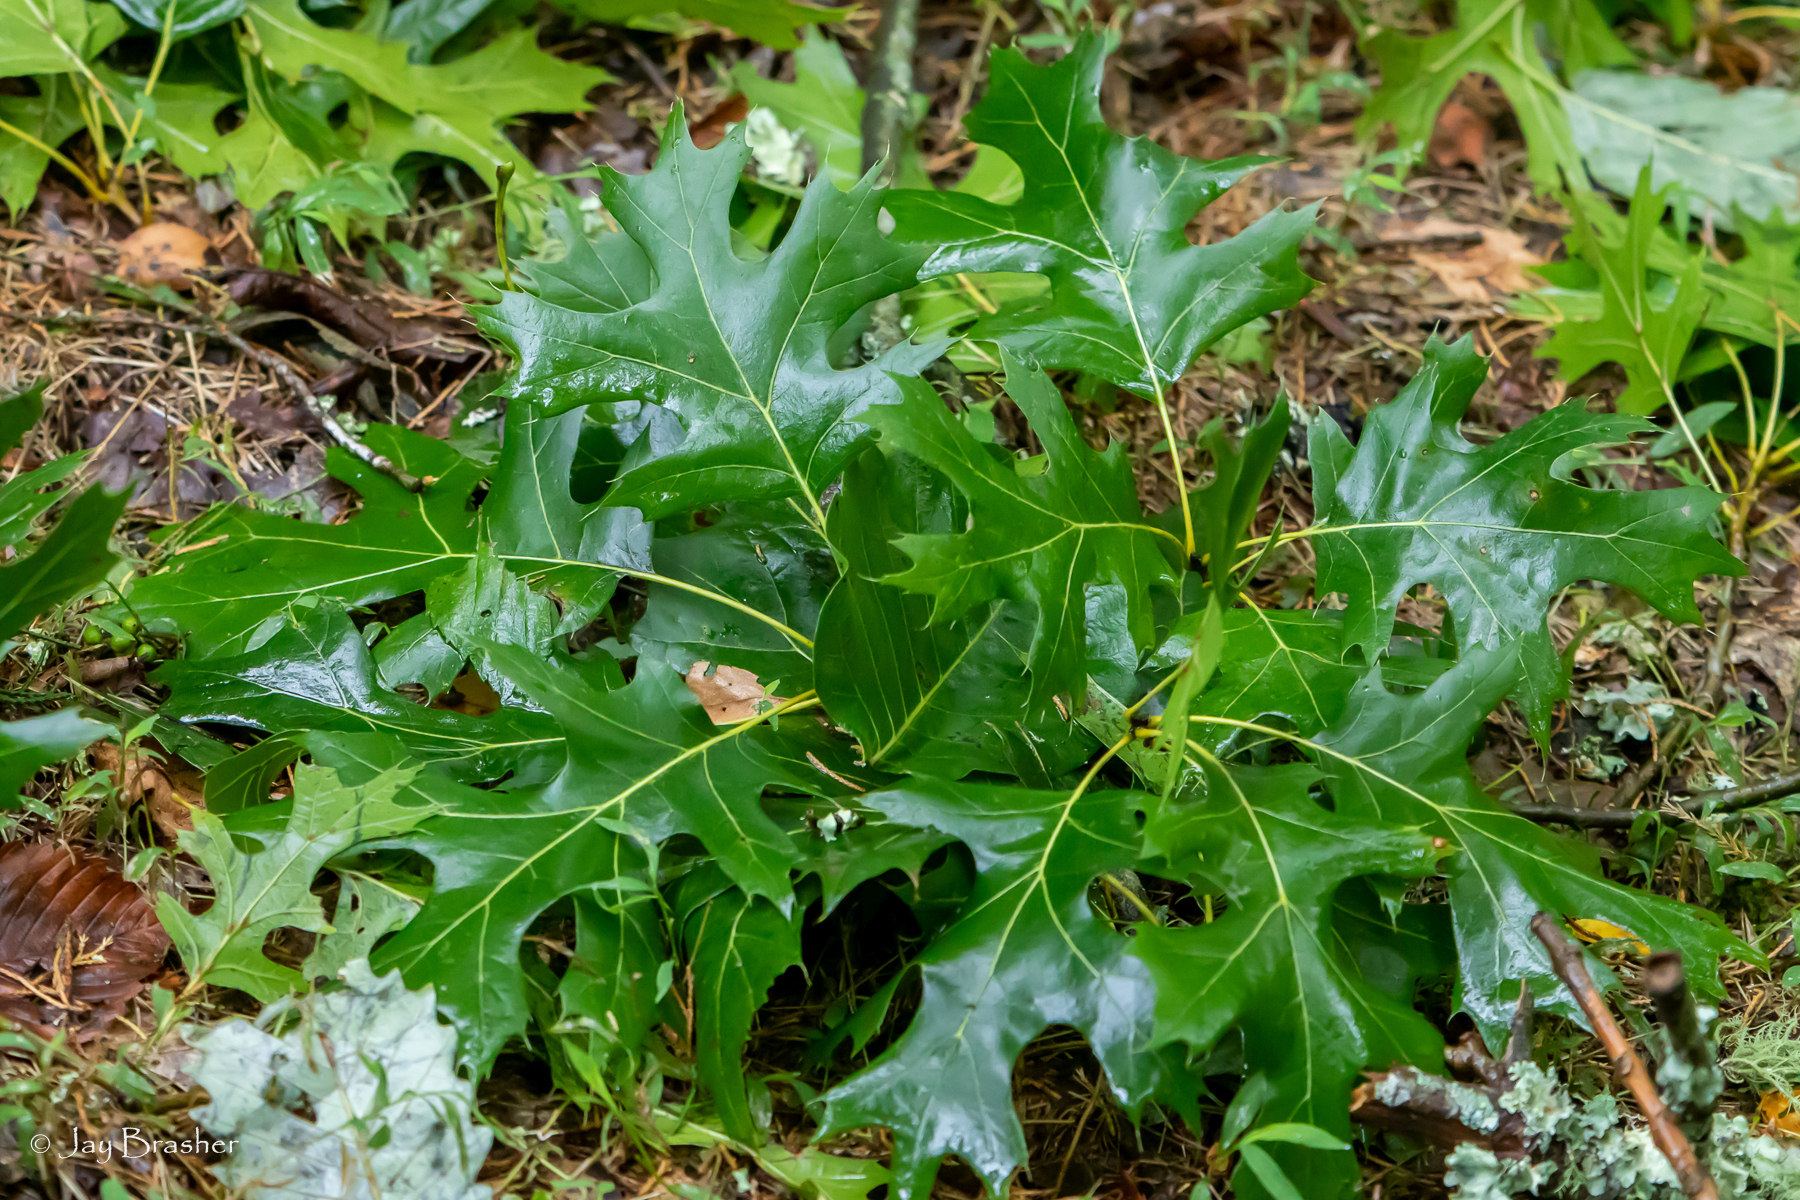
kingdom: Plantae
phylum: Tracheophyta
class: Magnoliopsida
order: Fagales
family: Fagaceae
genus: Quercus
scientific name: Quercus shumardii
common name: Shumard oak
